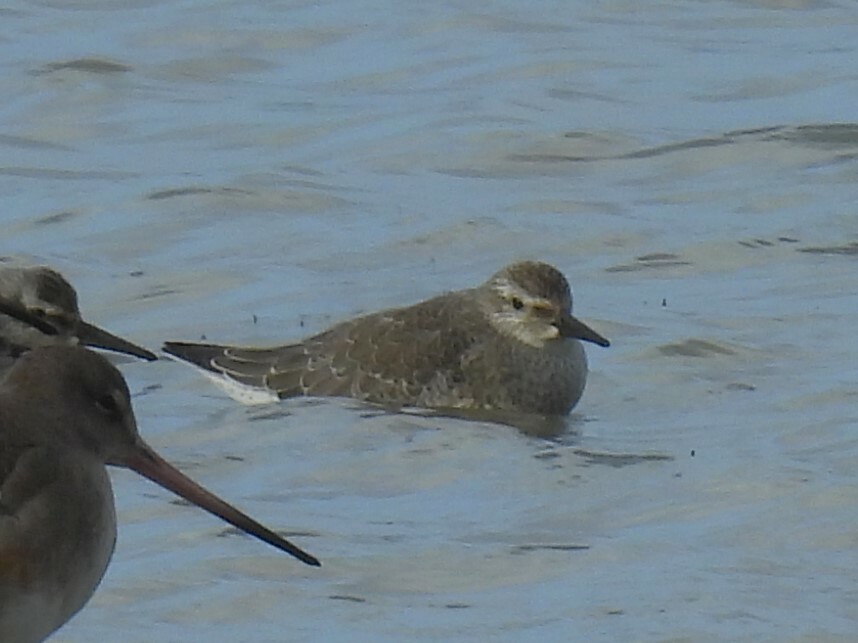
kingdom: Animalia
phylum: Chordata
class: Aves
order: Charadriiformes
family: Scolopacidae
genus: Calidris
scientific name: Calidris canutus
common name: Red knot
